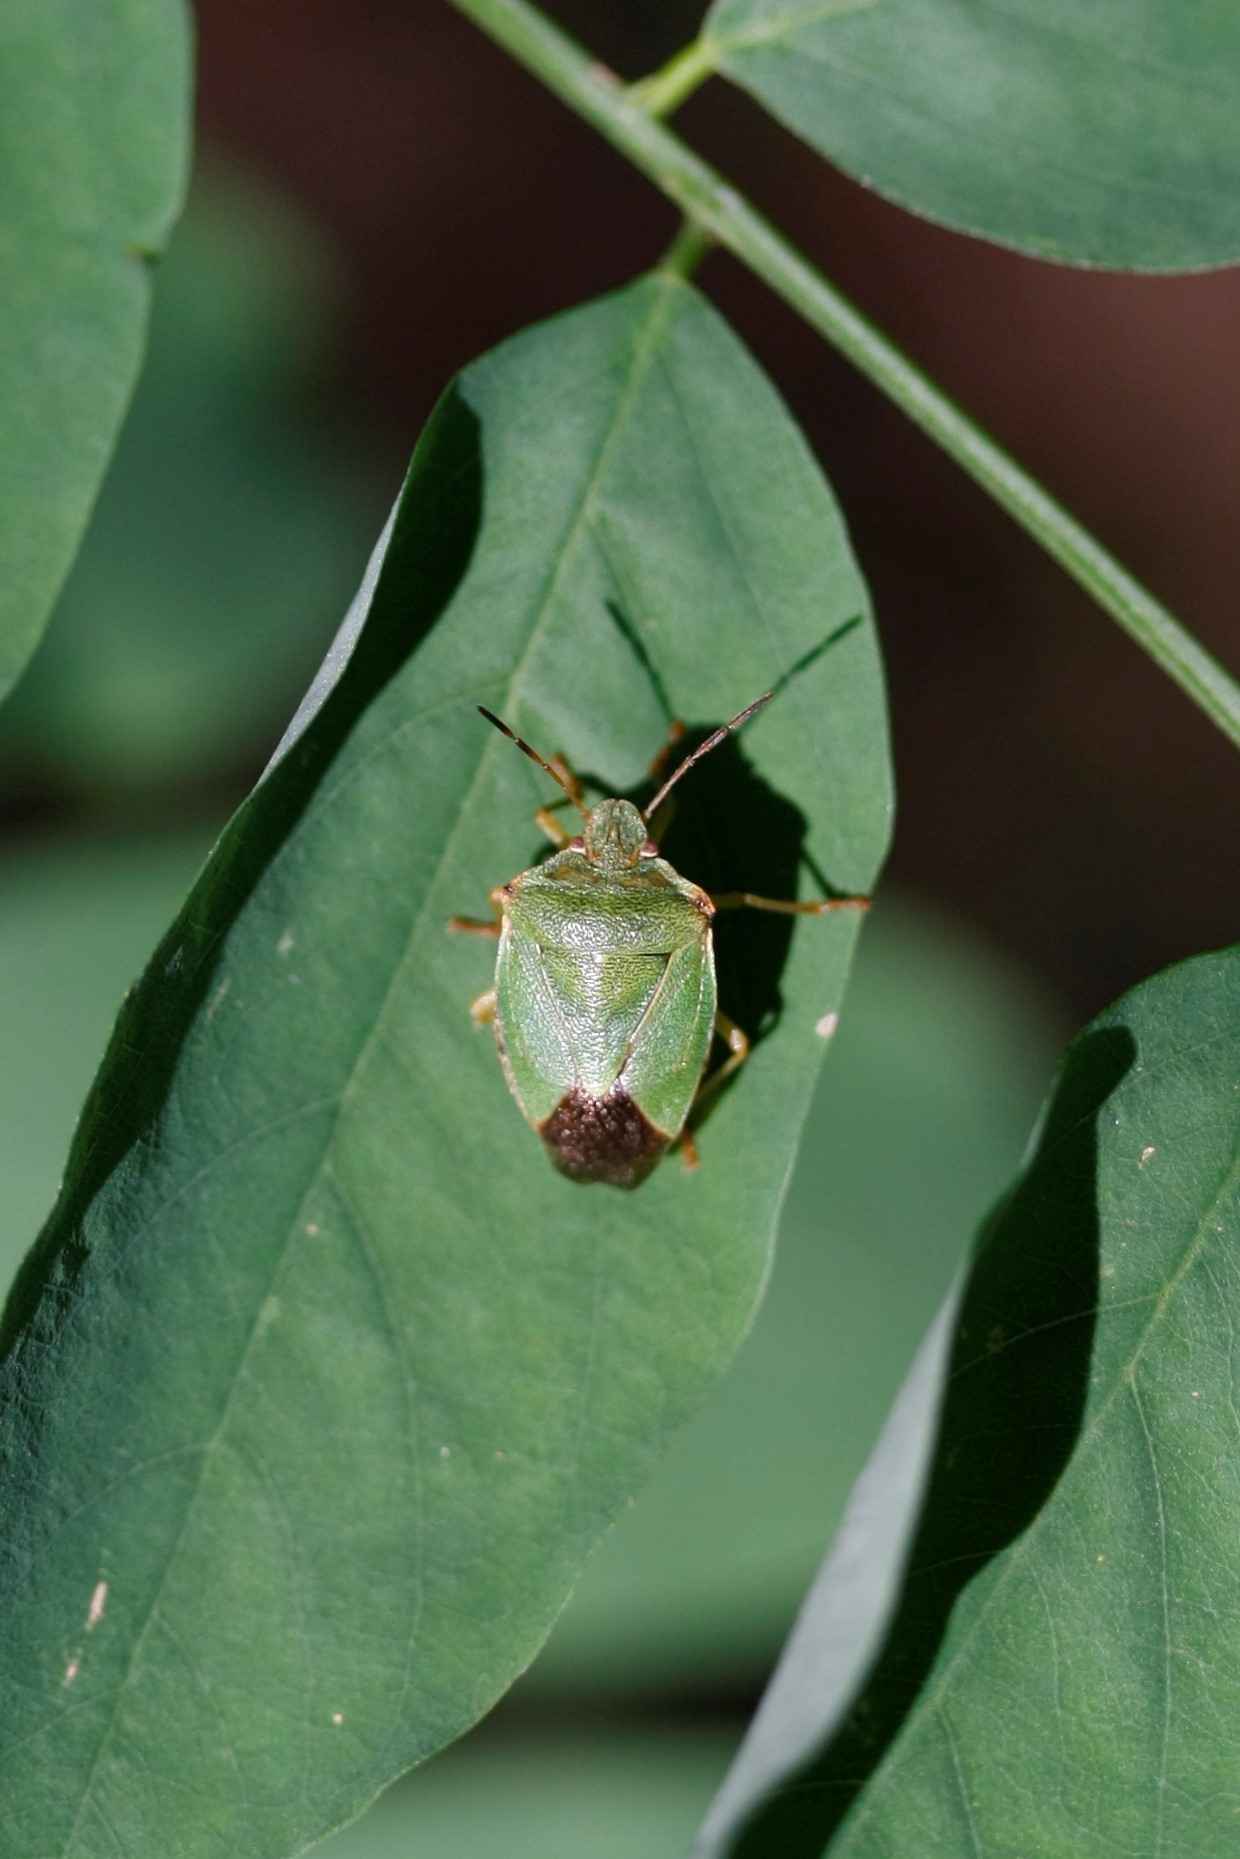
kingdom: Animalia
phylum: Arthropoda
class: Insecta
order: Hemiptera
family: Pentatomidae
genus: Palomena
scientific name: Palomena prasina
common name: Green shieldbug
